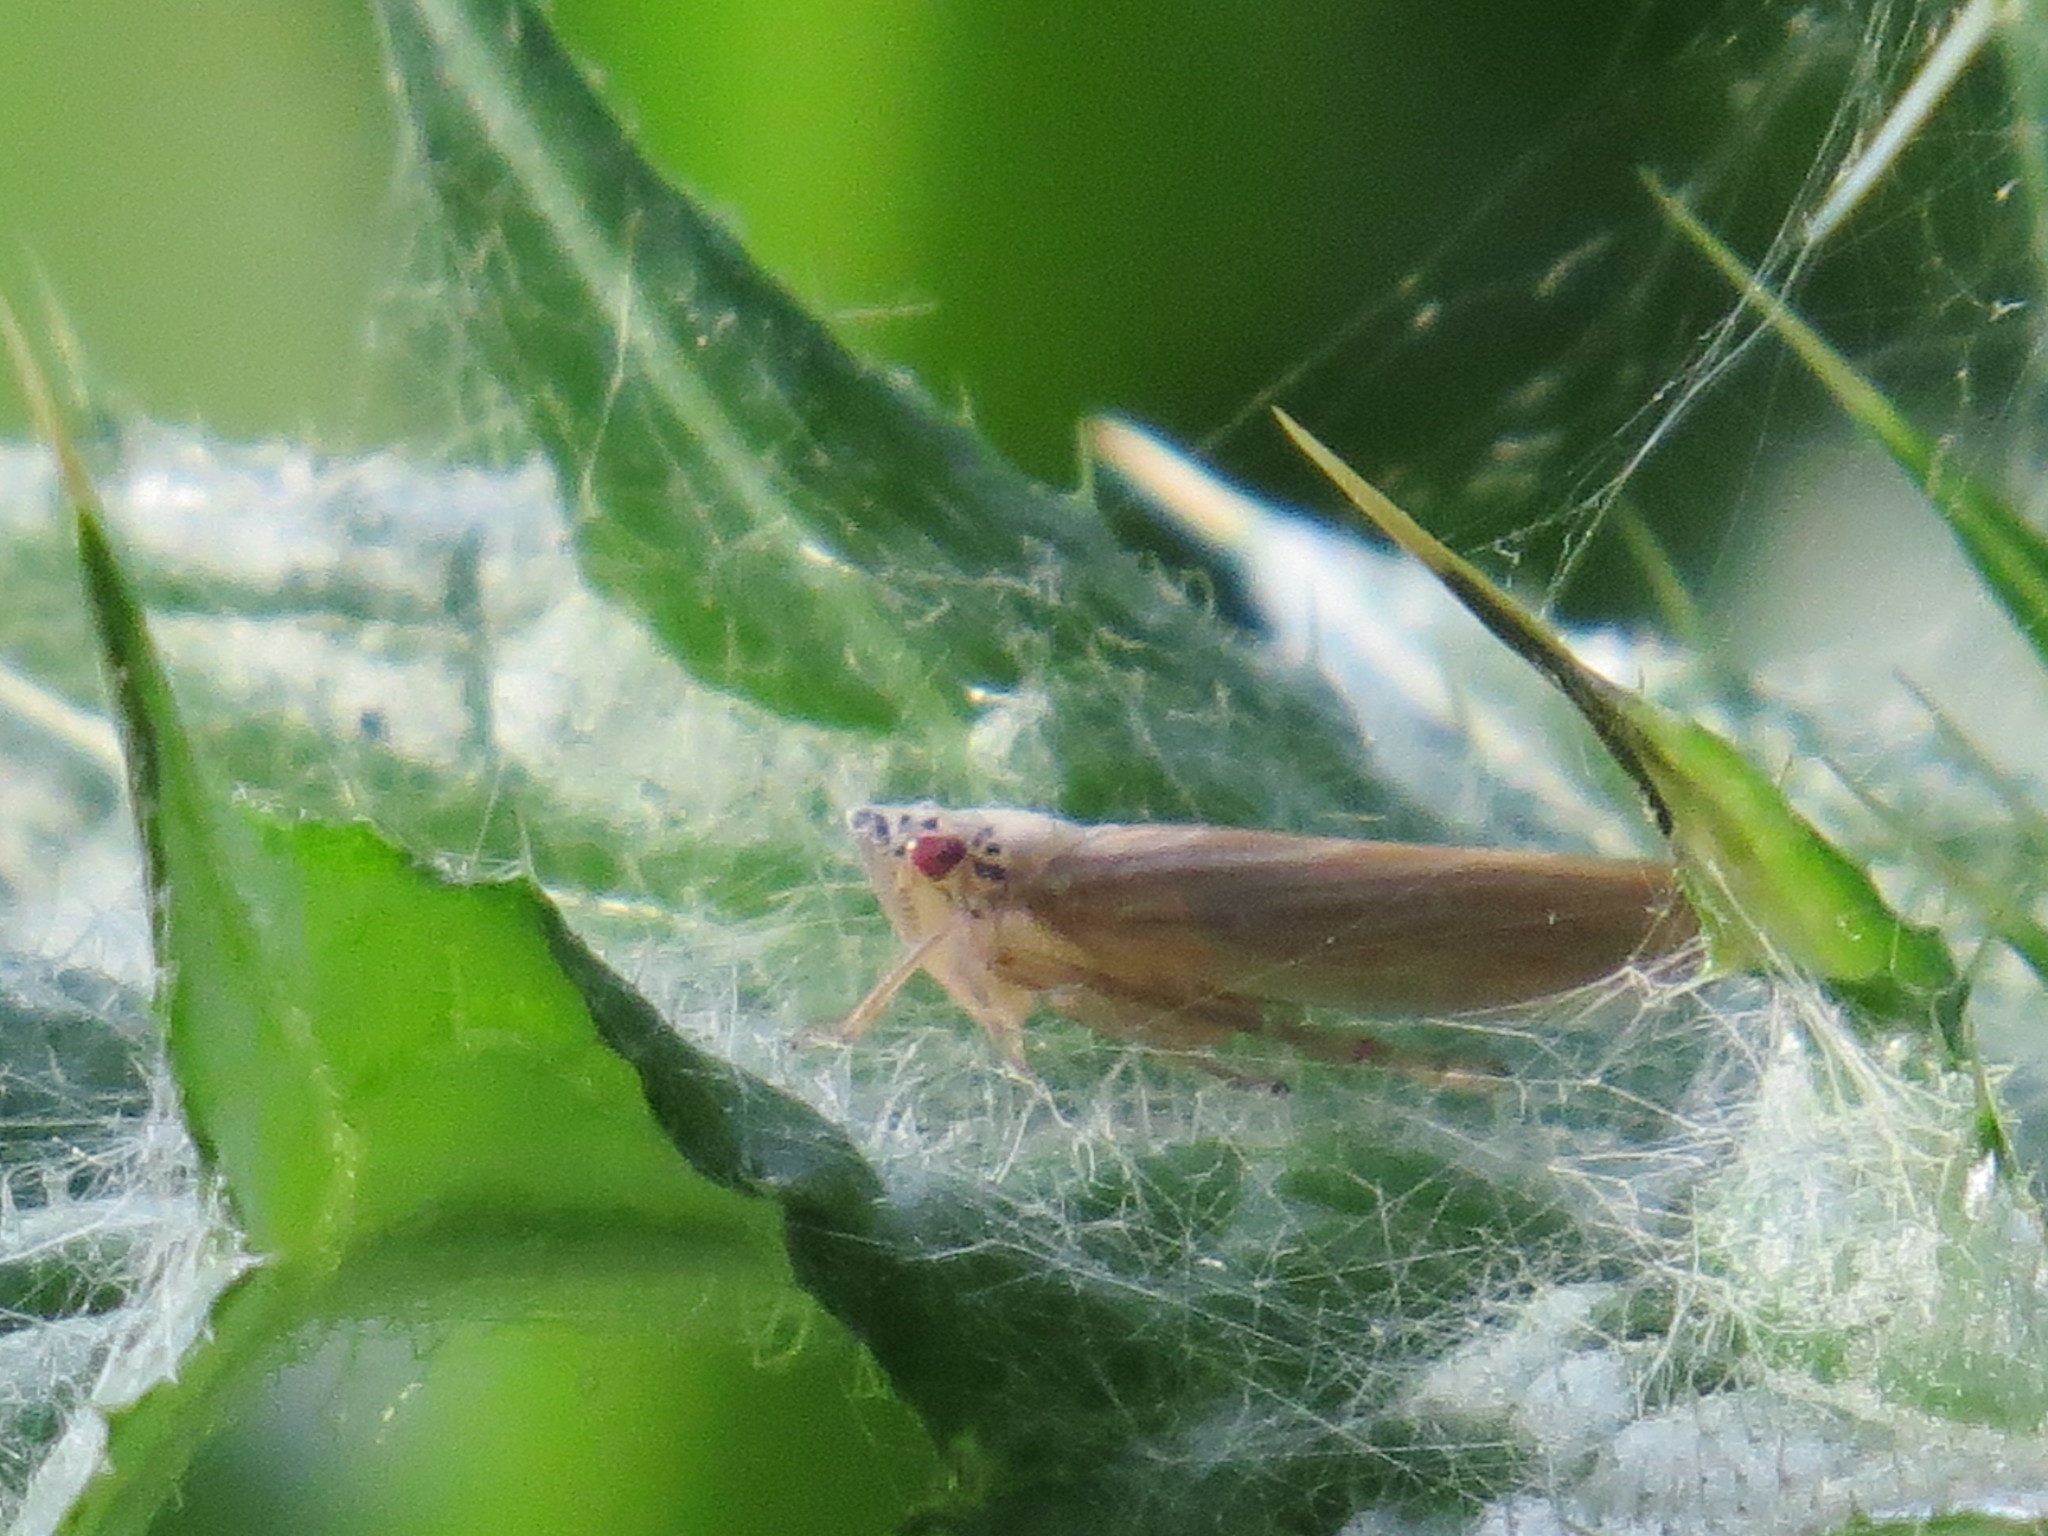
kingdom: Animalia
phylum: Arthropoda
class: Insecta
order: Hemiptera
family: Cicadellidae
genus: Pagaronia
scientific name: Pagaronia triunata
